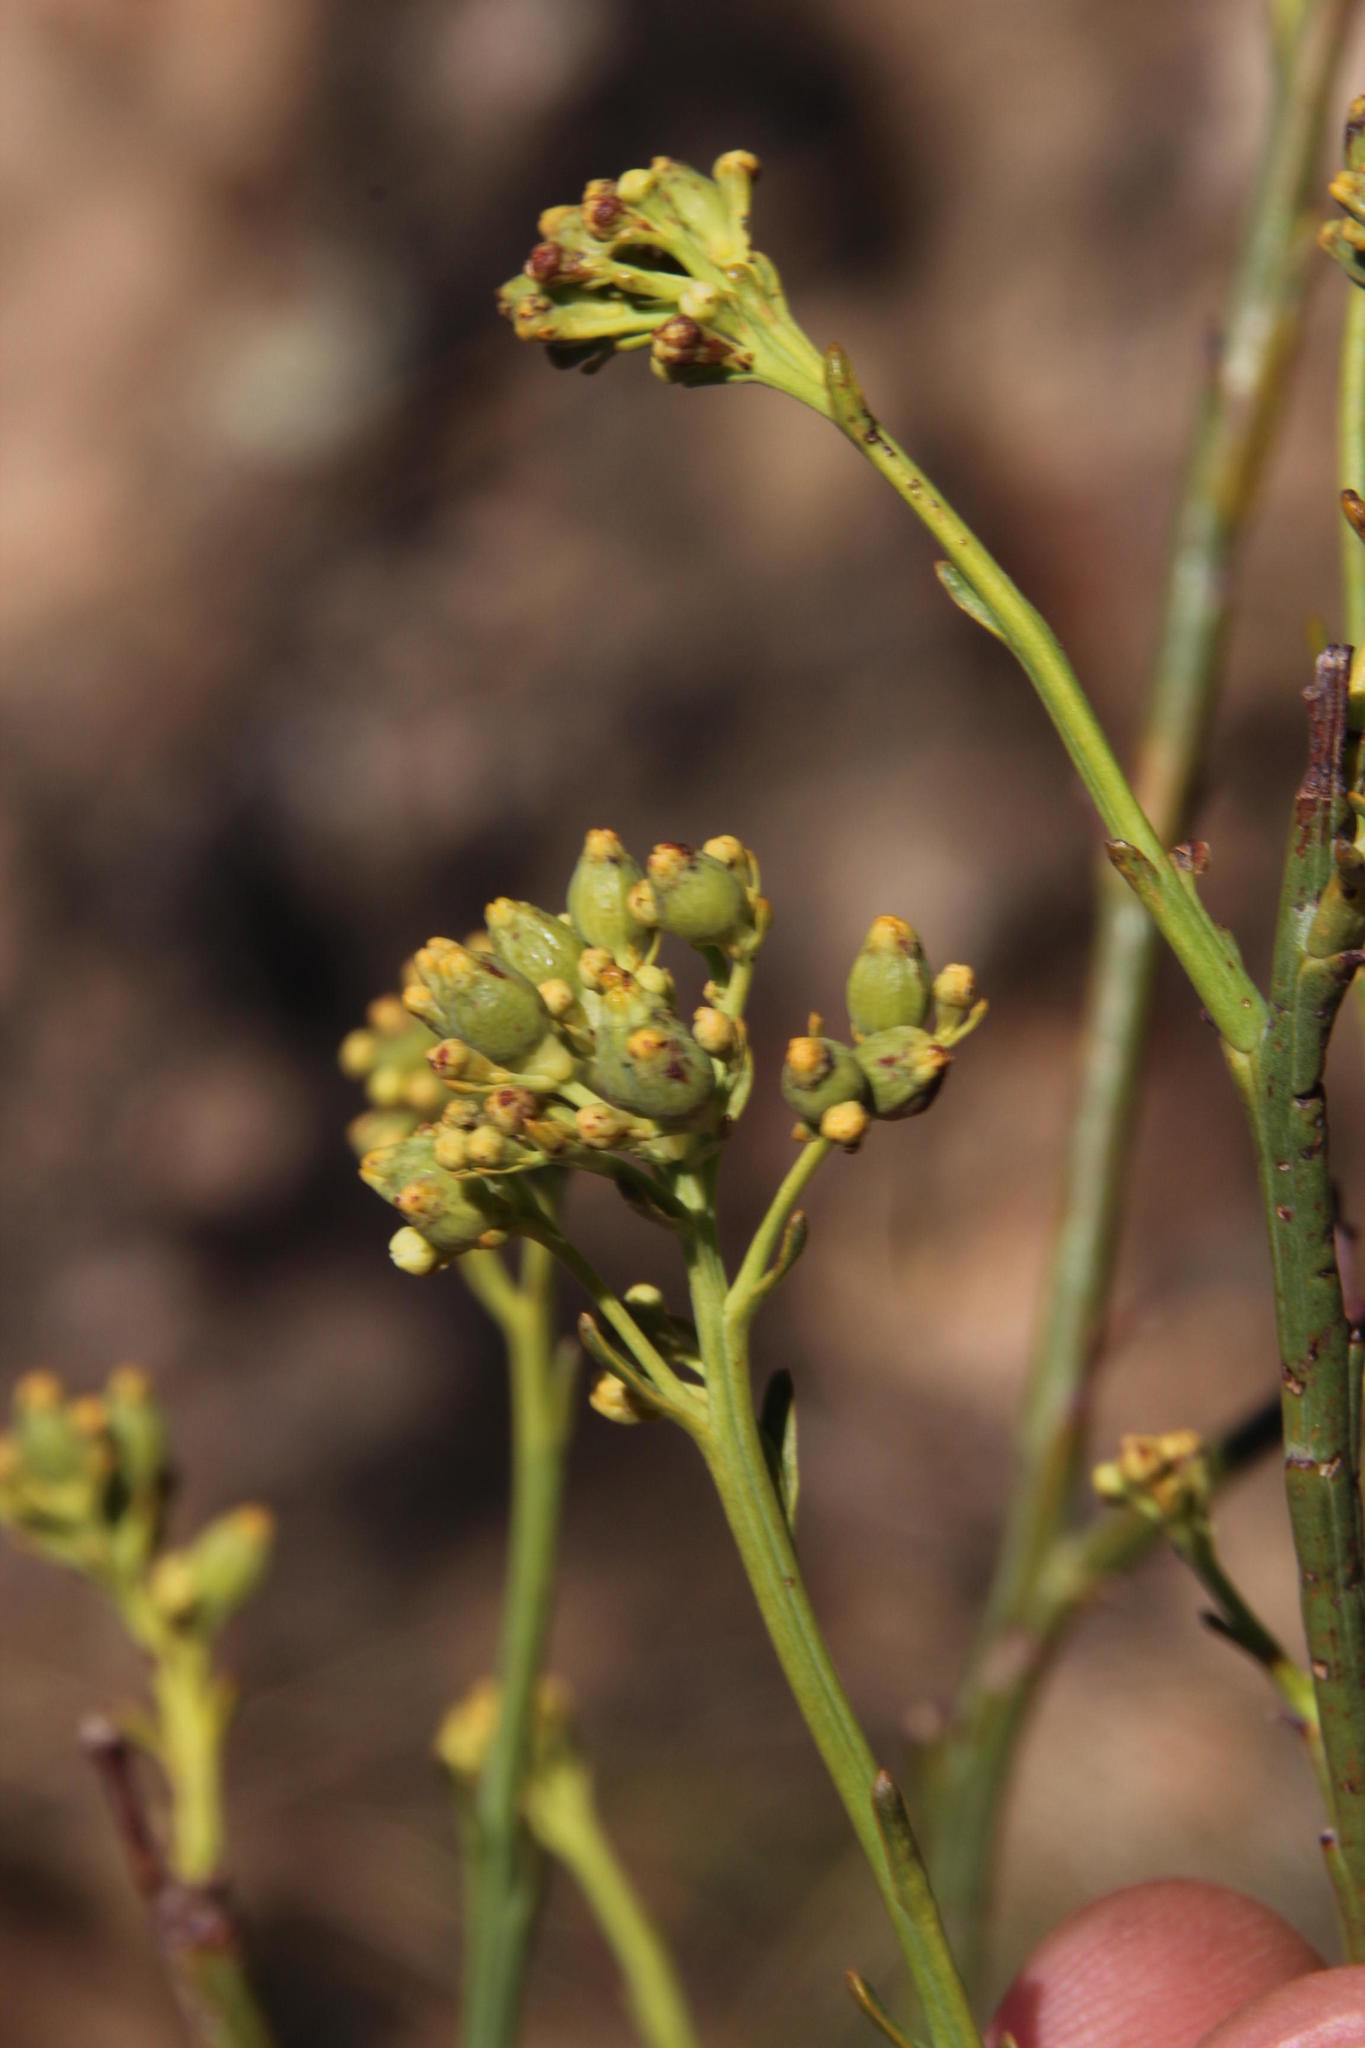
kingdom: Plantae
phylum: Tracheophyta
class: Magnoliopsida
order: Santalales
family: Thesiaceae
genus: Thesium
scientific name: Thesium strictum
